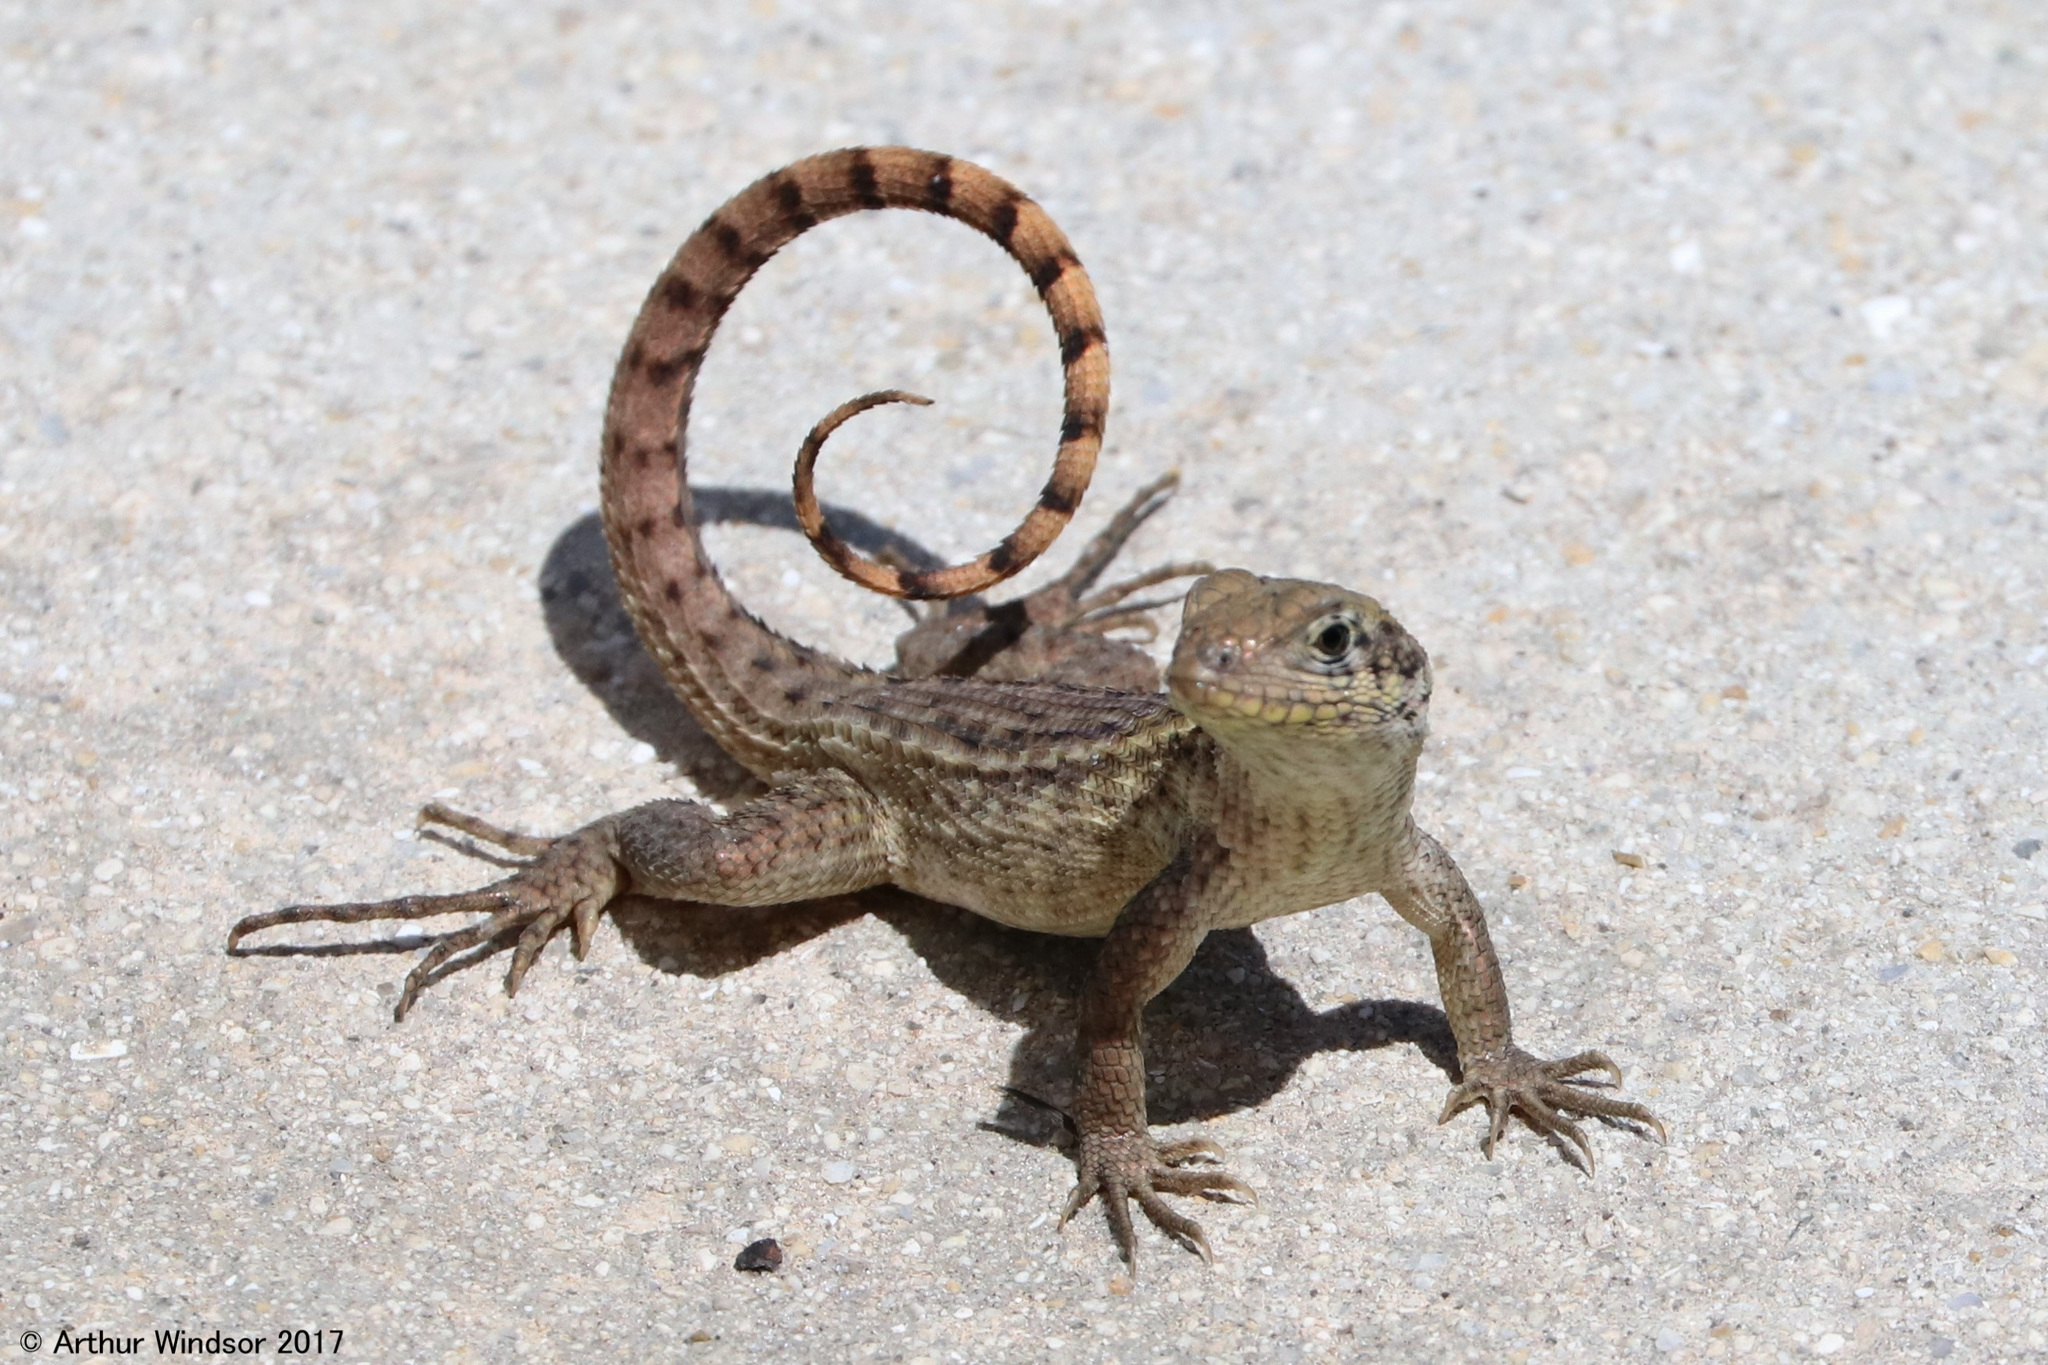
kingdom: Animalia
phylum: Chordata
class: Squamata
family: Leiocephalidae
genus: Leiocephalus
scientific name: Leiocephalus carinatus
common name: Northern curly-tailed lizard
